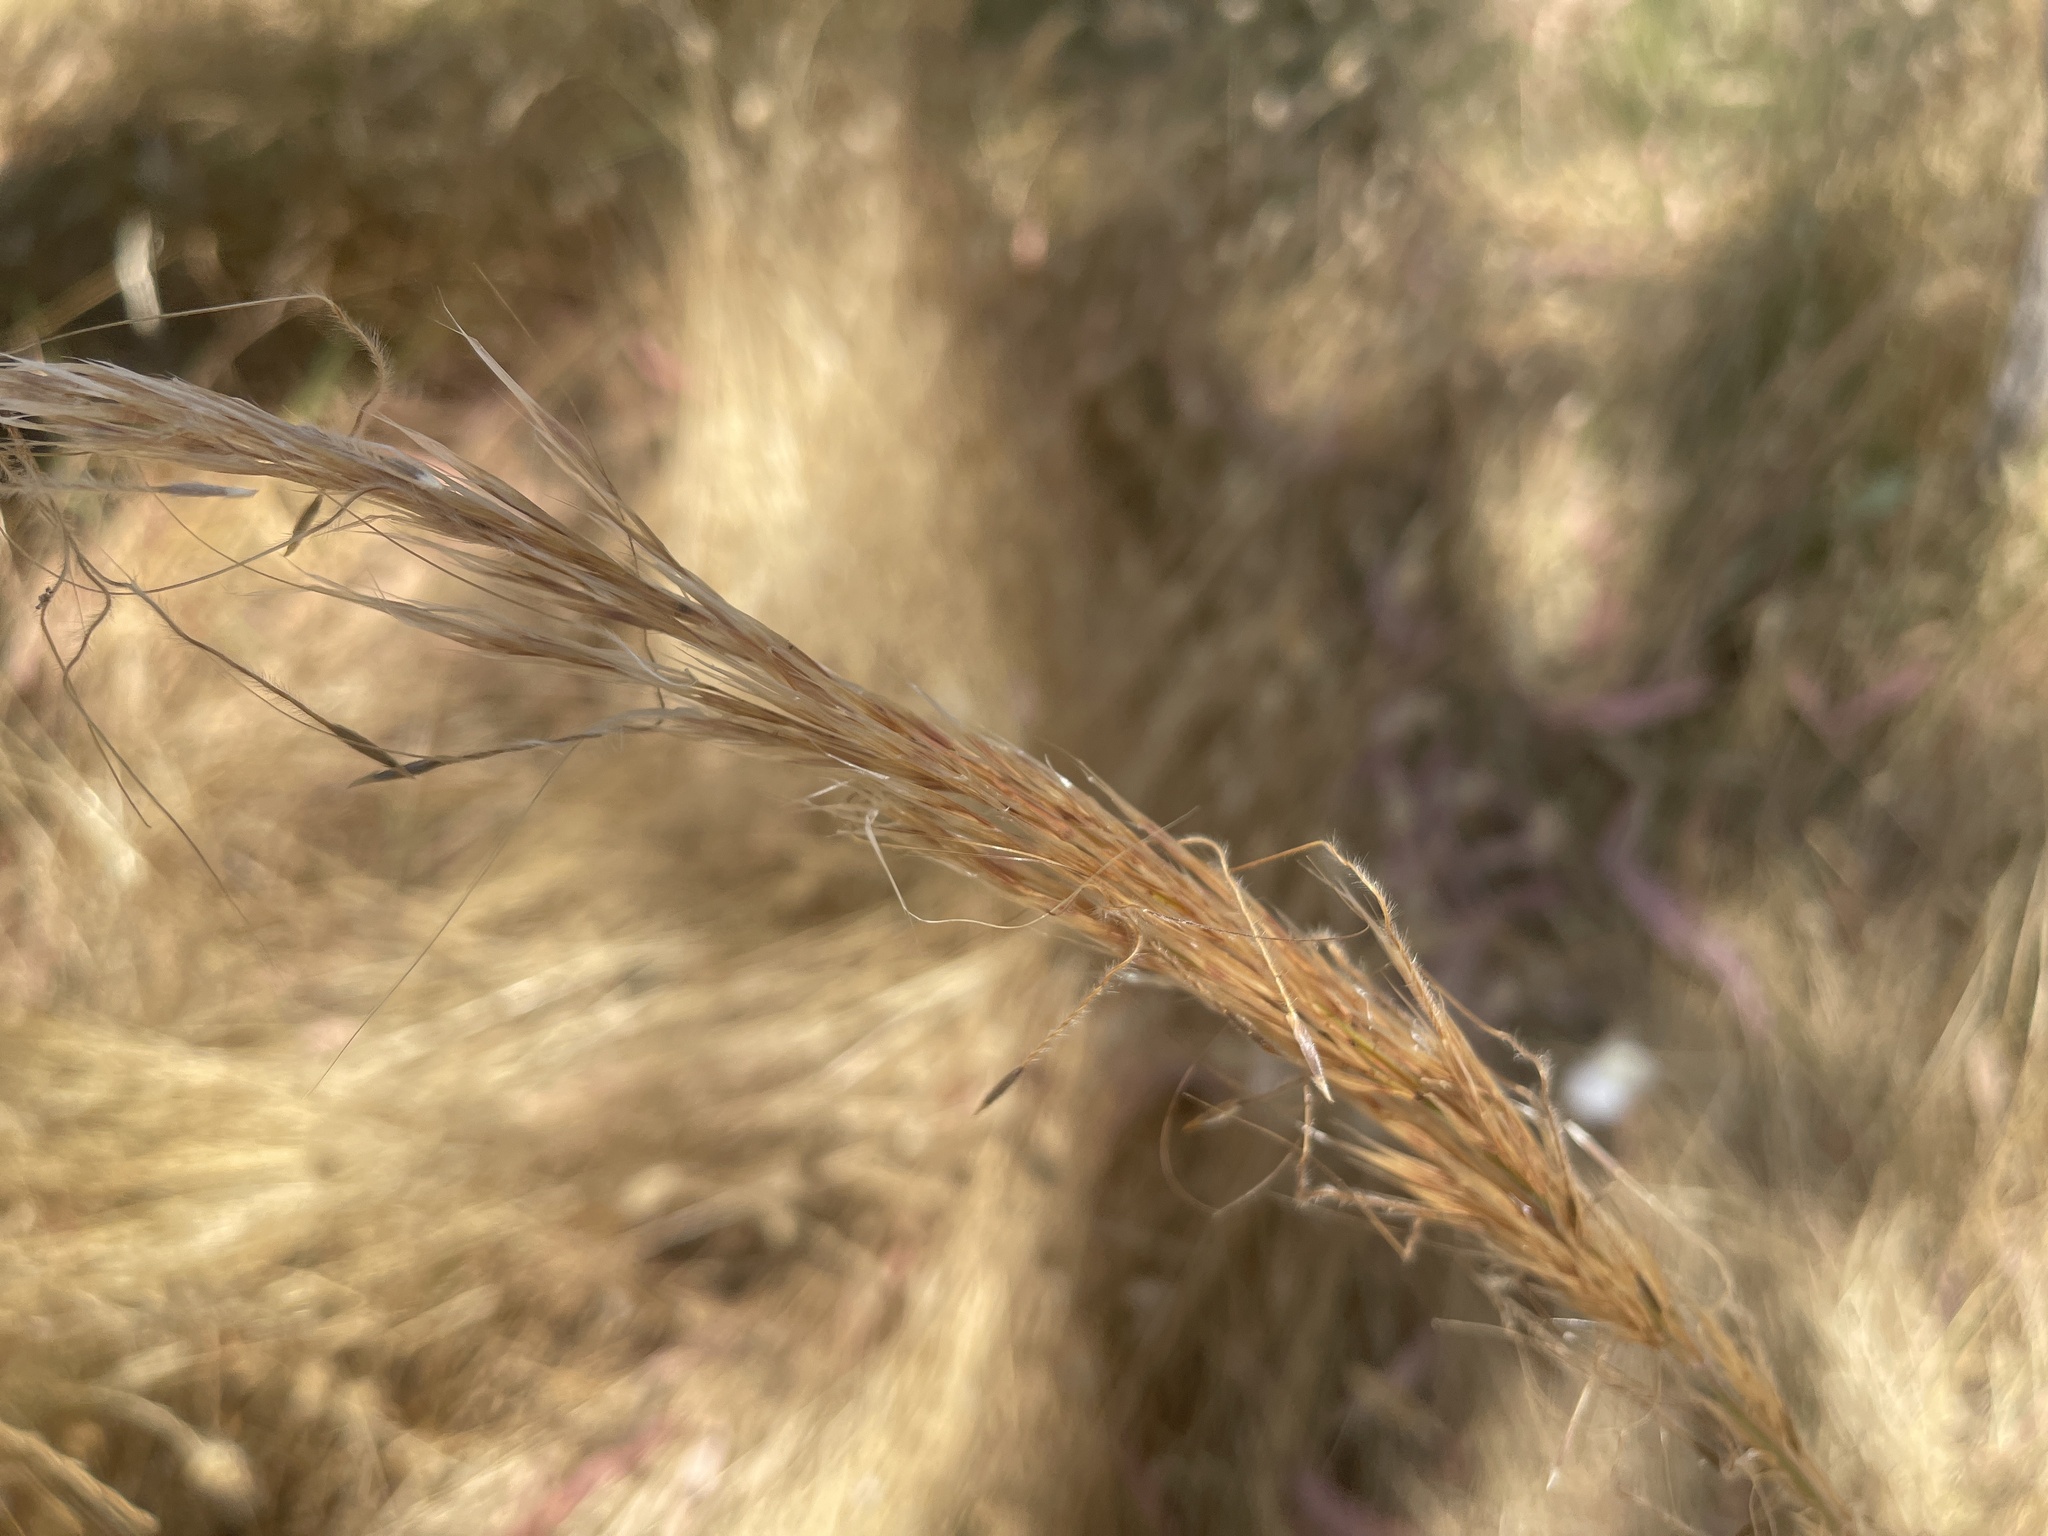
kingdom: Plantae
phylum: Tracheophyta
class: Liliopsida
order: Poales
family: Poaceae
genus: Austrostipa
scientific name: Austrostipa mollis
